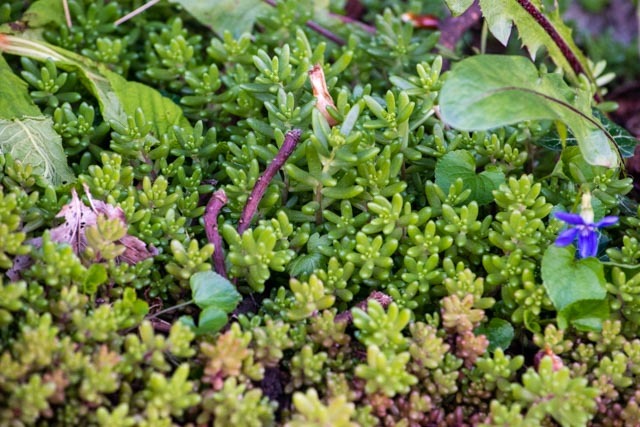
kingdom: Plantae
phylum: Tracheophyta
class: Magnoliopsida
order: Saxifragales
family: Crassulaceae
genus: Sedum
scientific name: Sedum album
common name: White stonecrop
